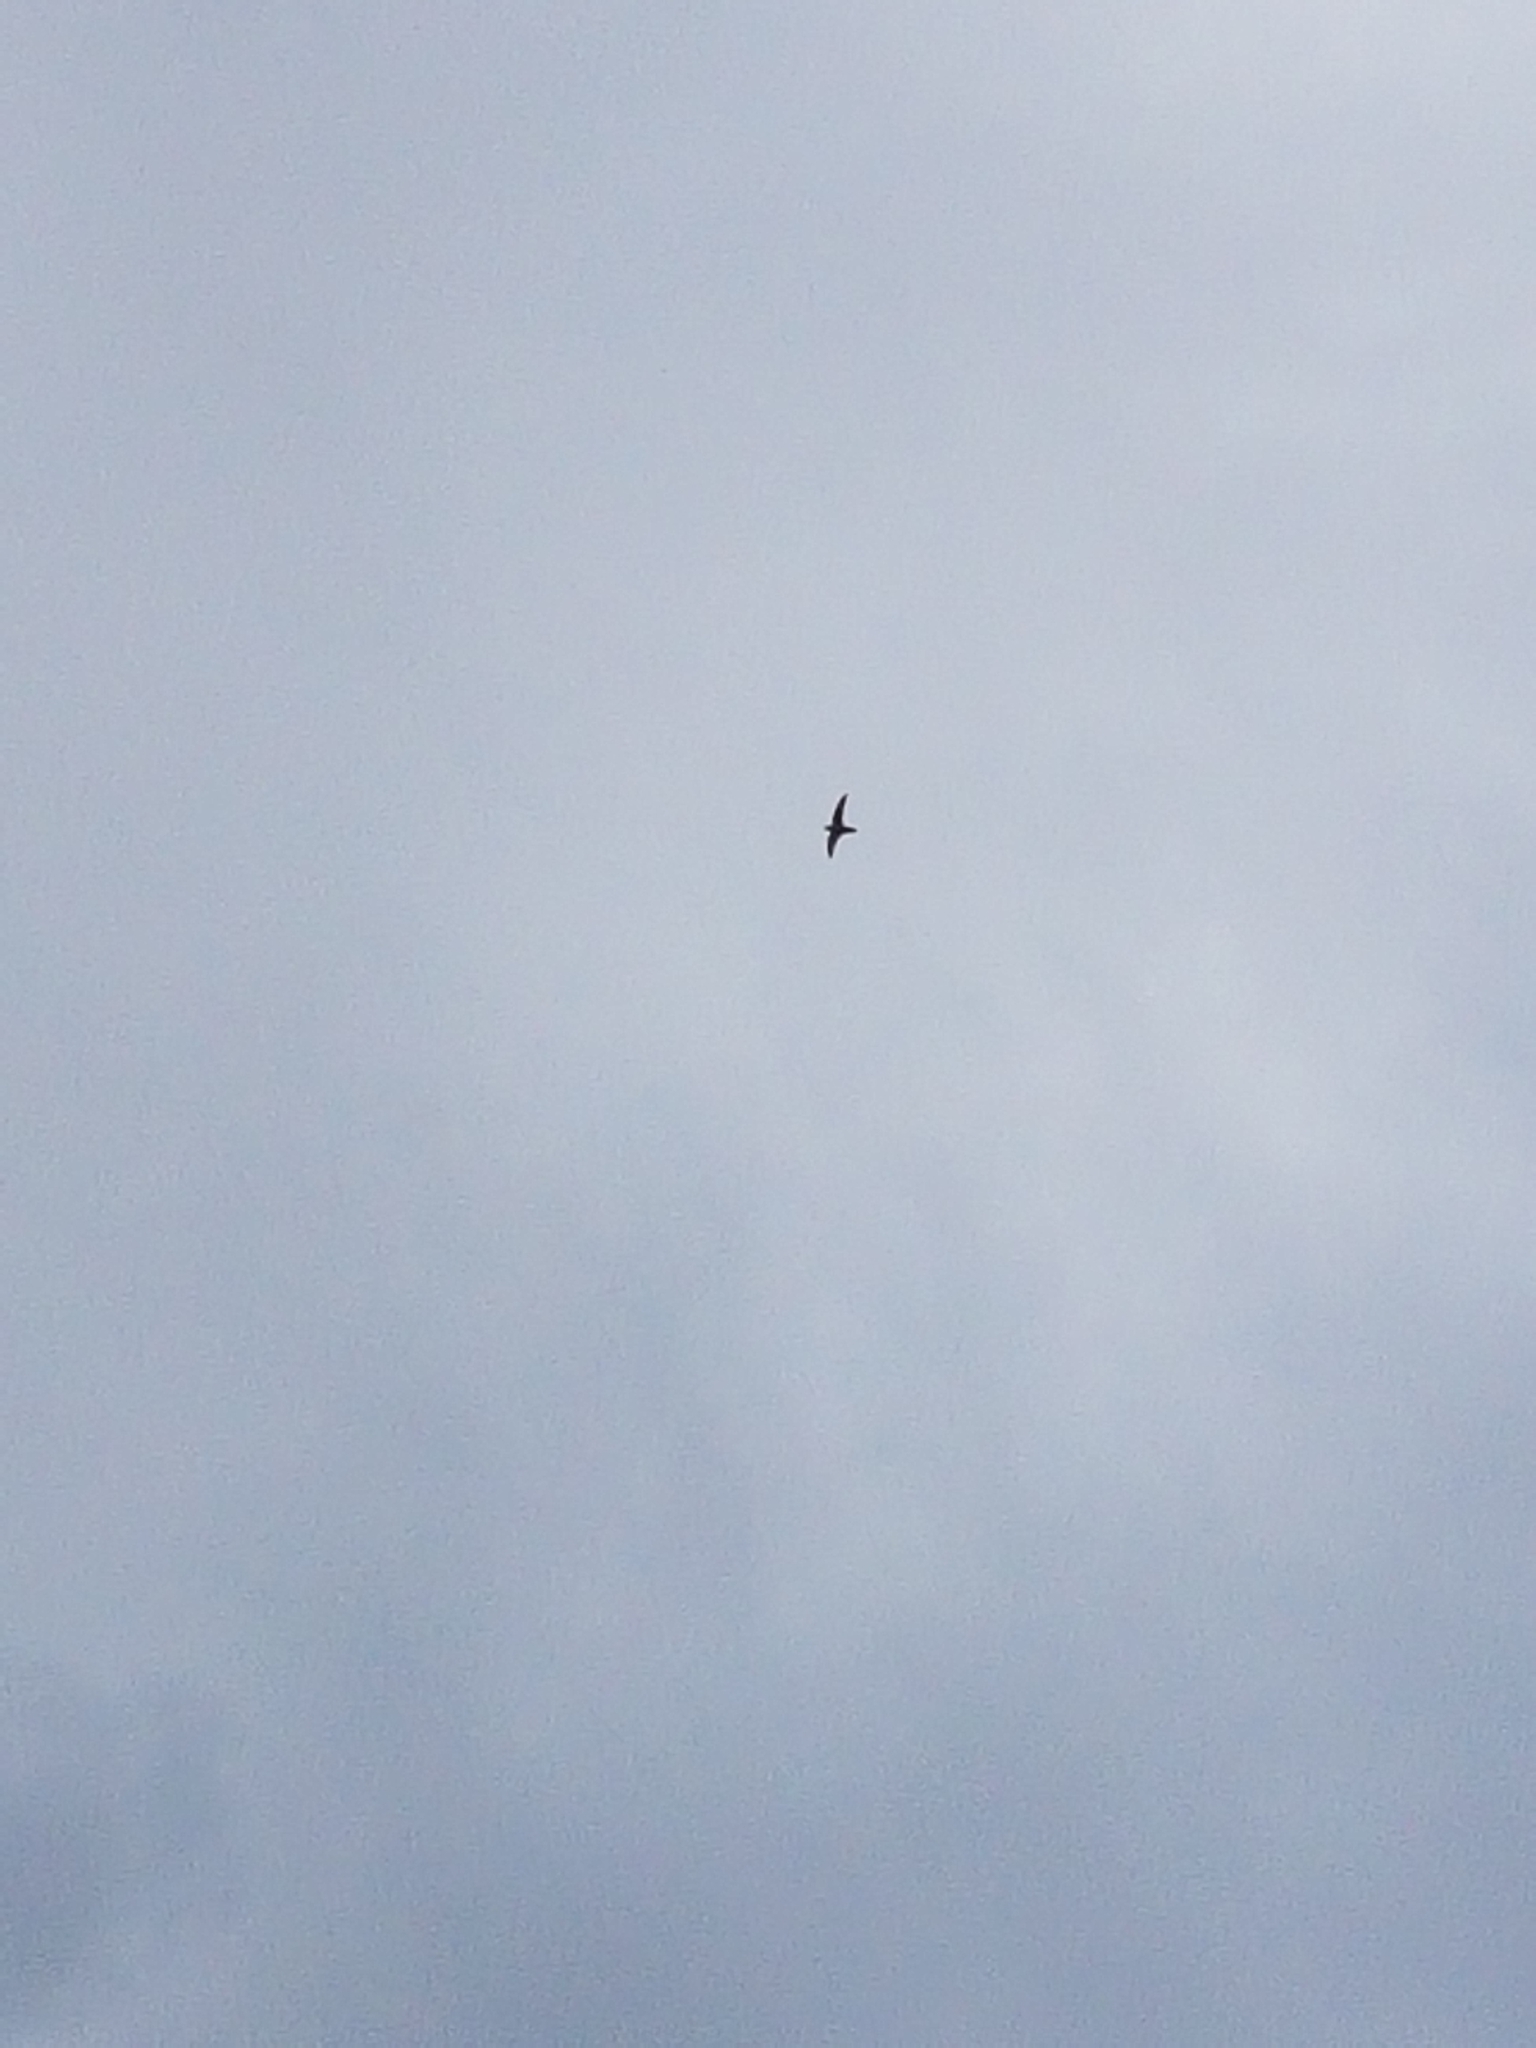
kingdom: Animalia
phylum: Chordata
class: Aves
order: Apodiformes
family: Apodidae
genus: Chaetura
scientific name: Chaetura pelagica
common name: Chimney swift
